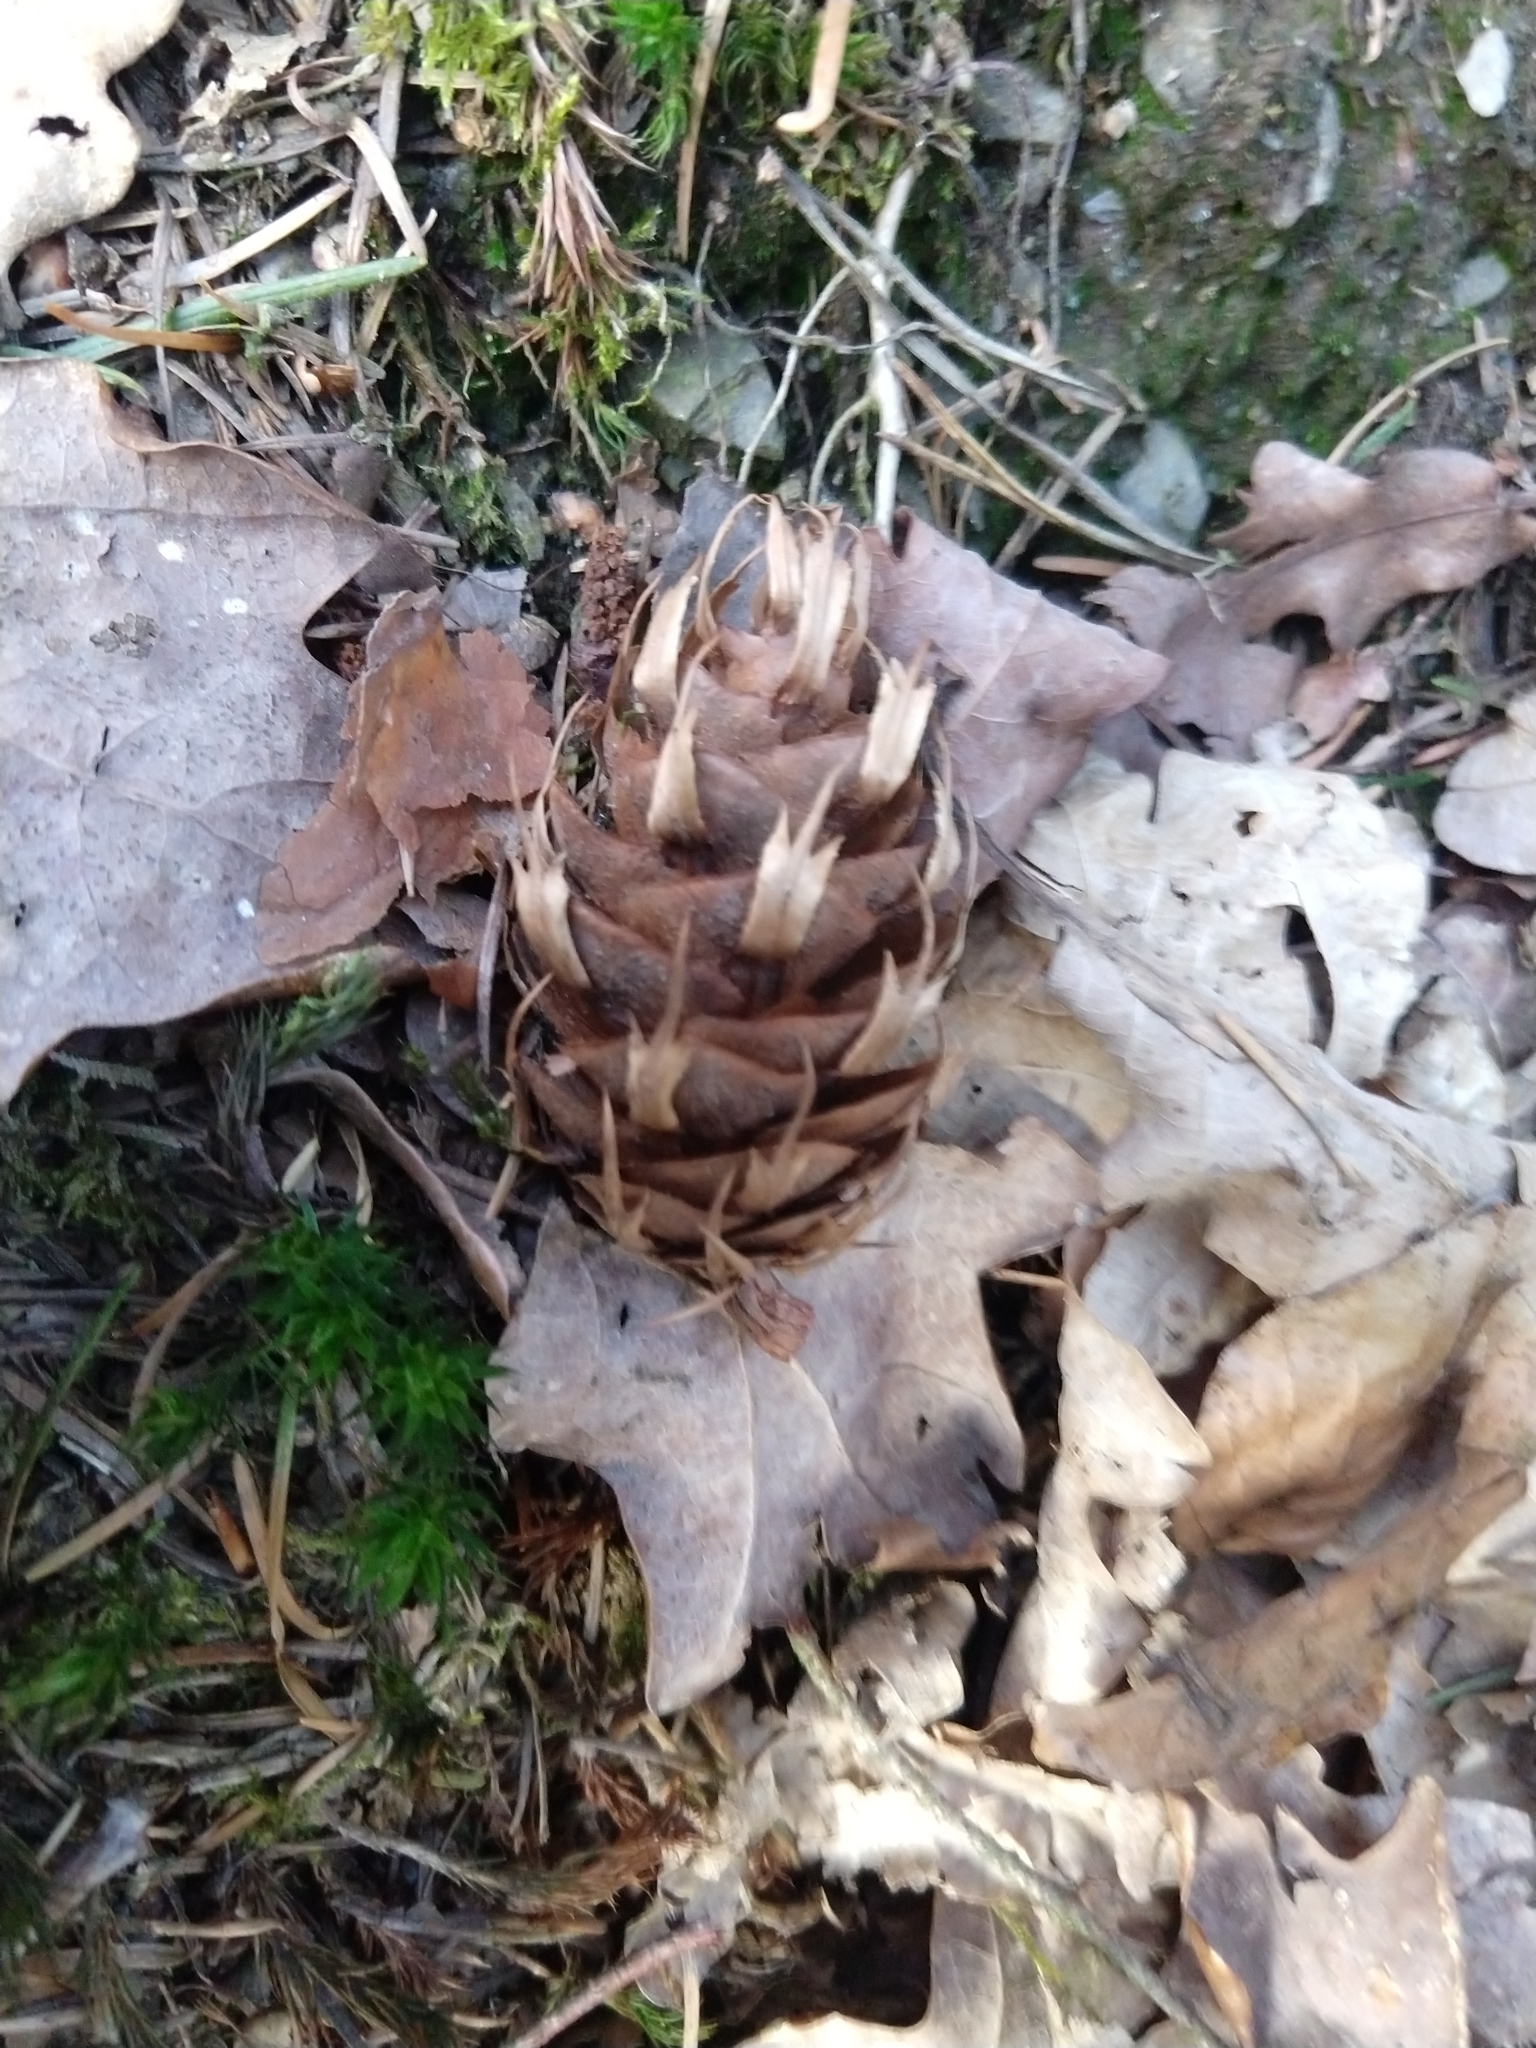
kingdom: Plantae
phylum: Tracheophyta
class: Pinopsida
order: Pinales
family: Pinaceae
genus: Pseudotsuga
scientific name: Pseudotsuga menziesii
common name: Douglas fir
